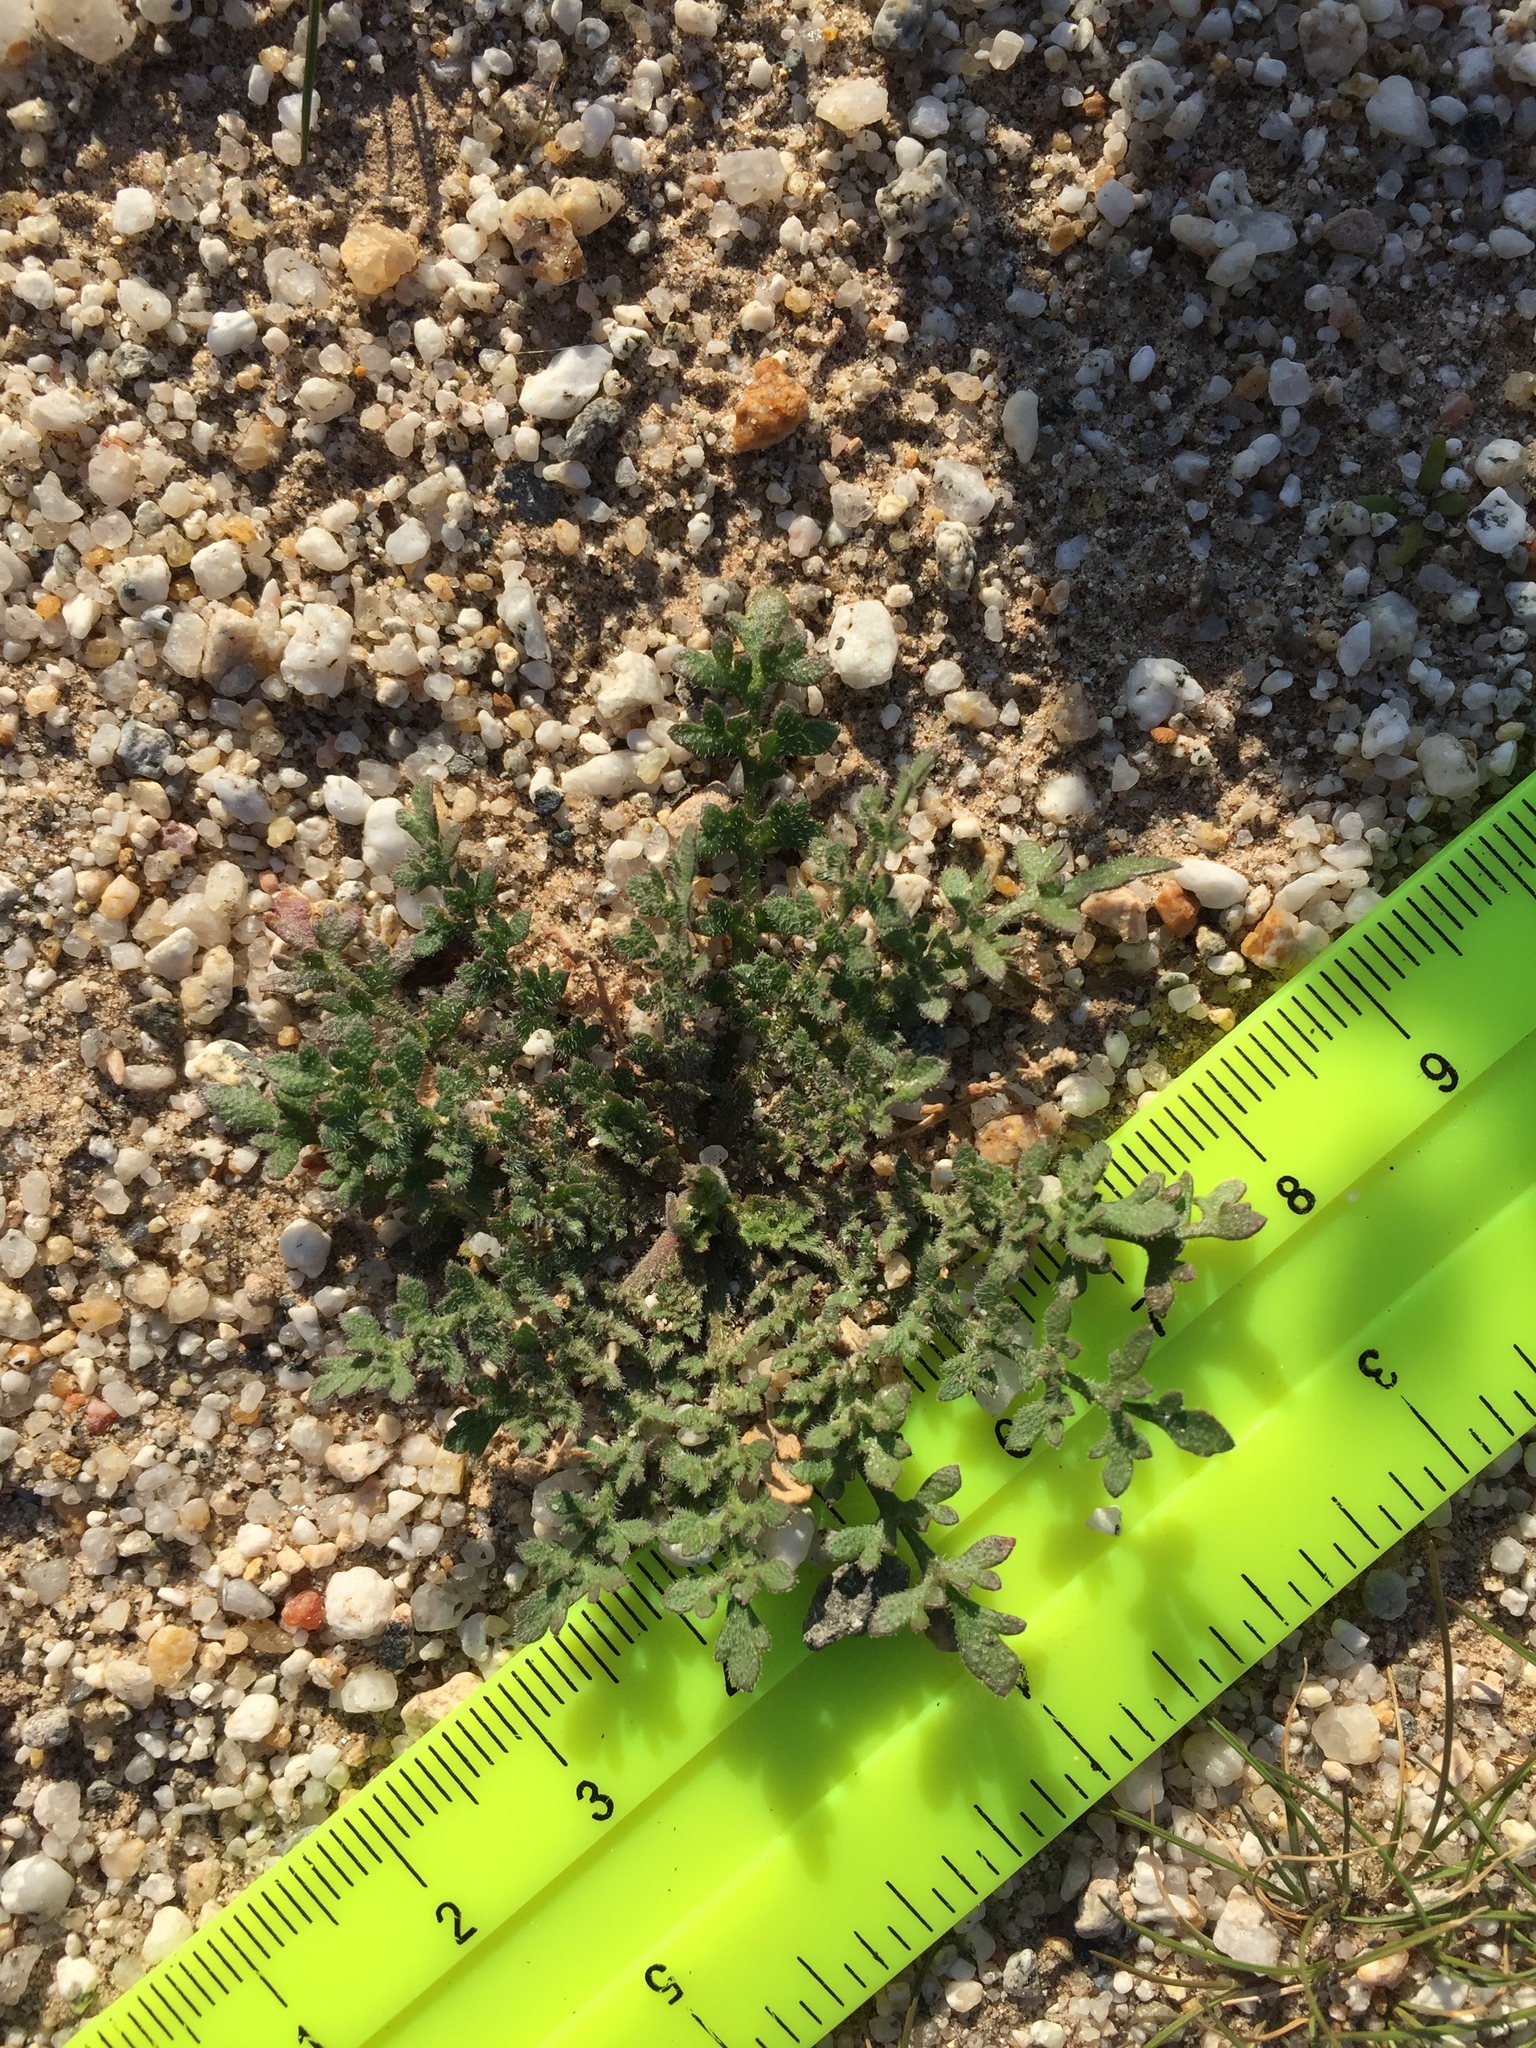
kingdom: Plantae
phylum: Tracheophyta
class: Magnoliopsida
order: Brassicales
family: Brassicaceae
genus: Lepidium
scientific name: Lepidium lasiocarpum
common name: Hairy-pod pepperwort
